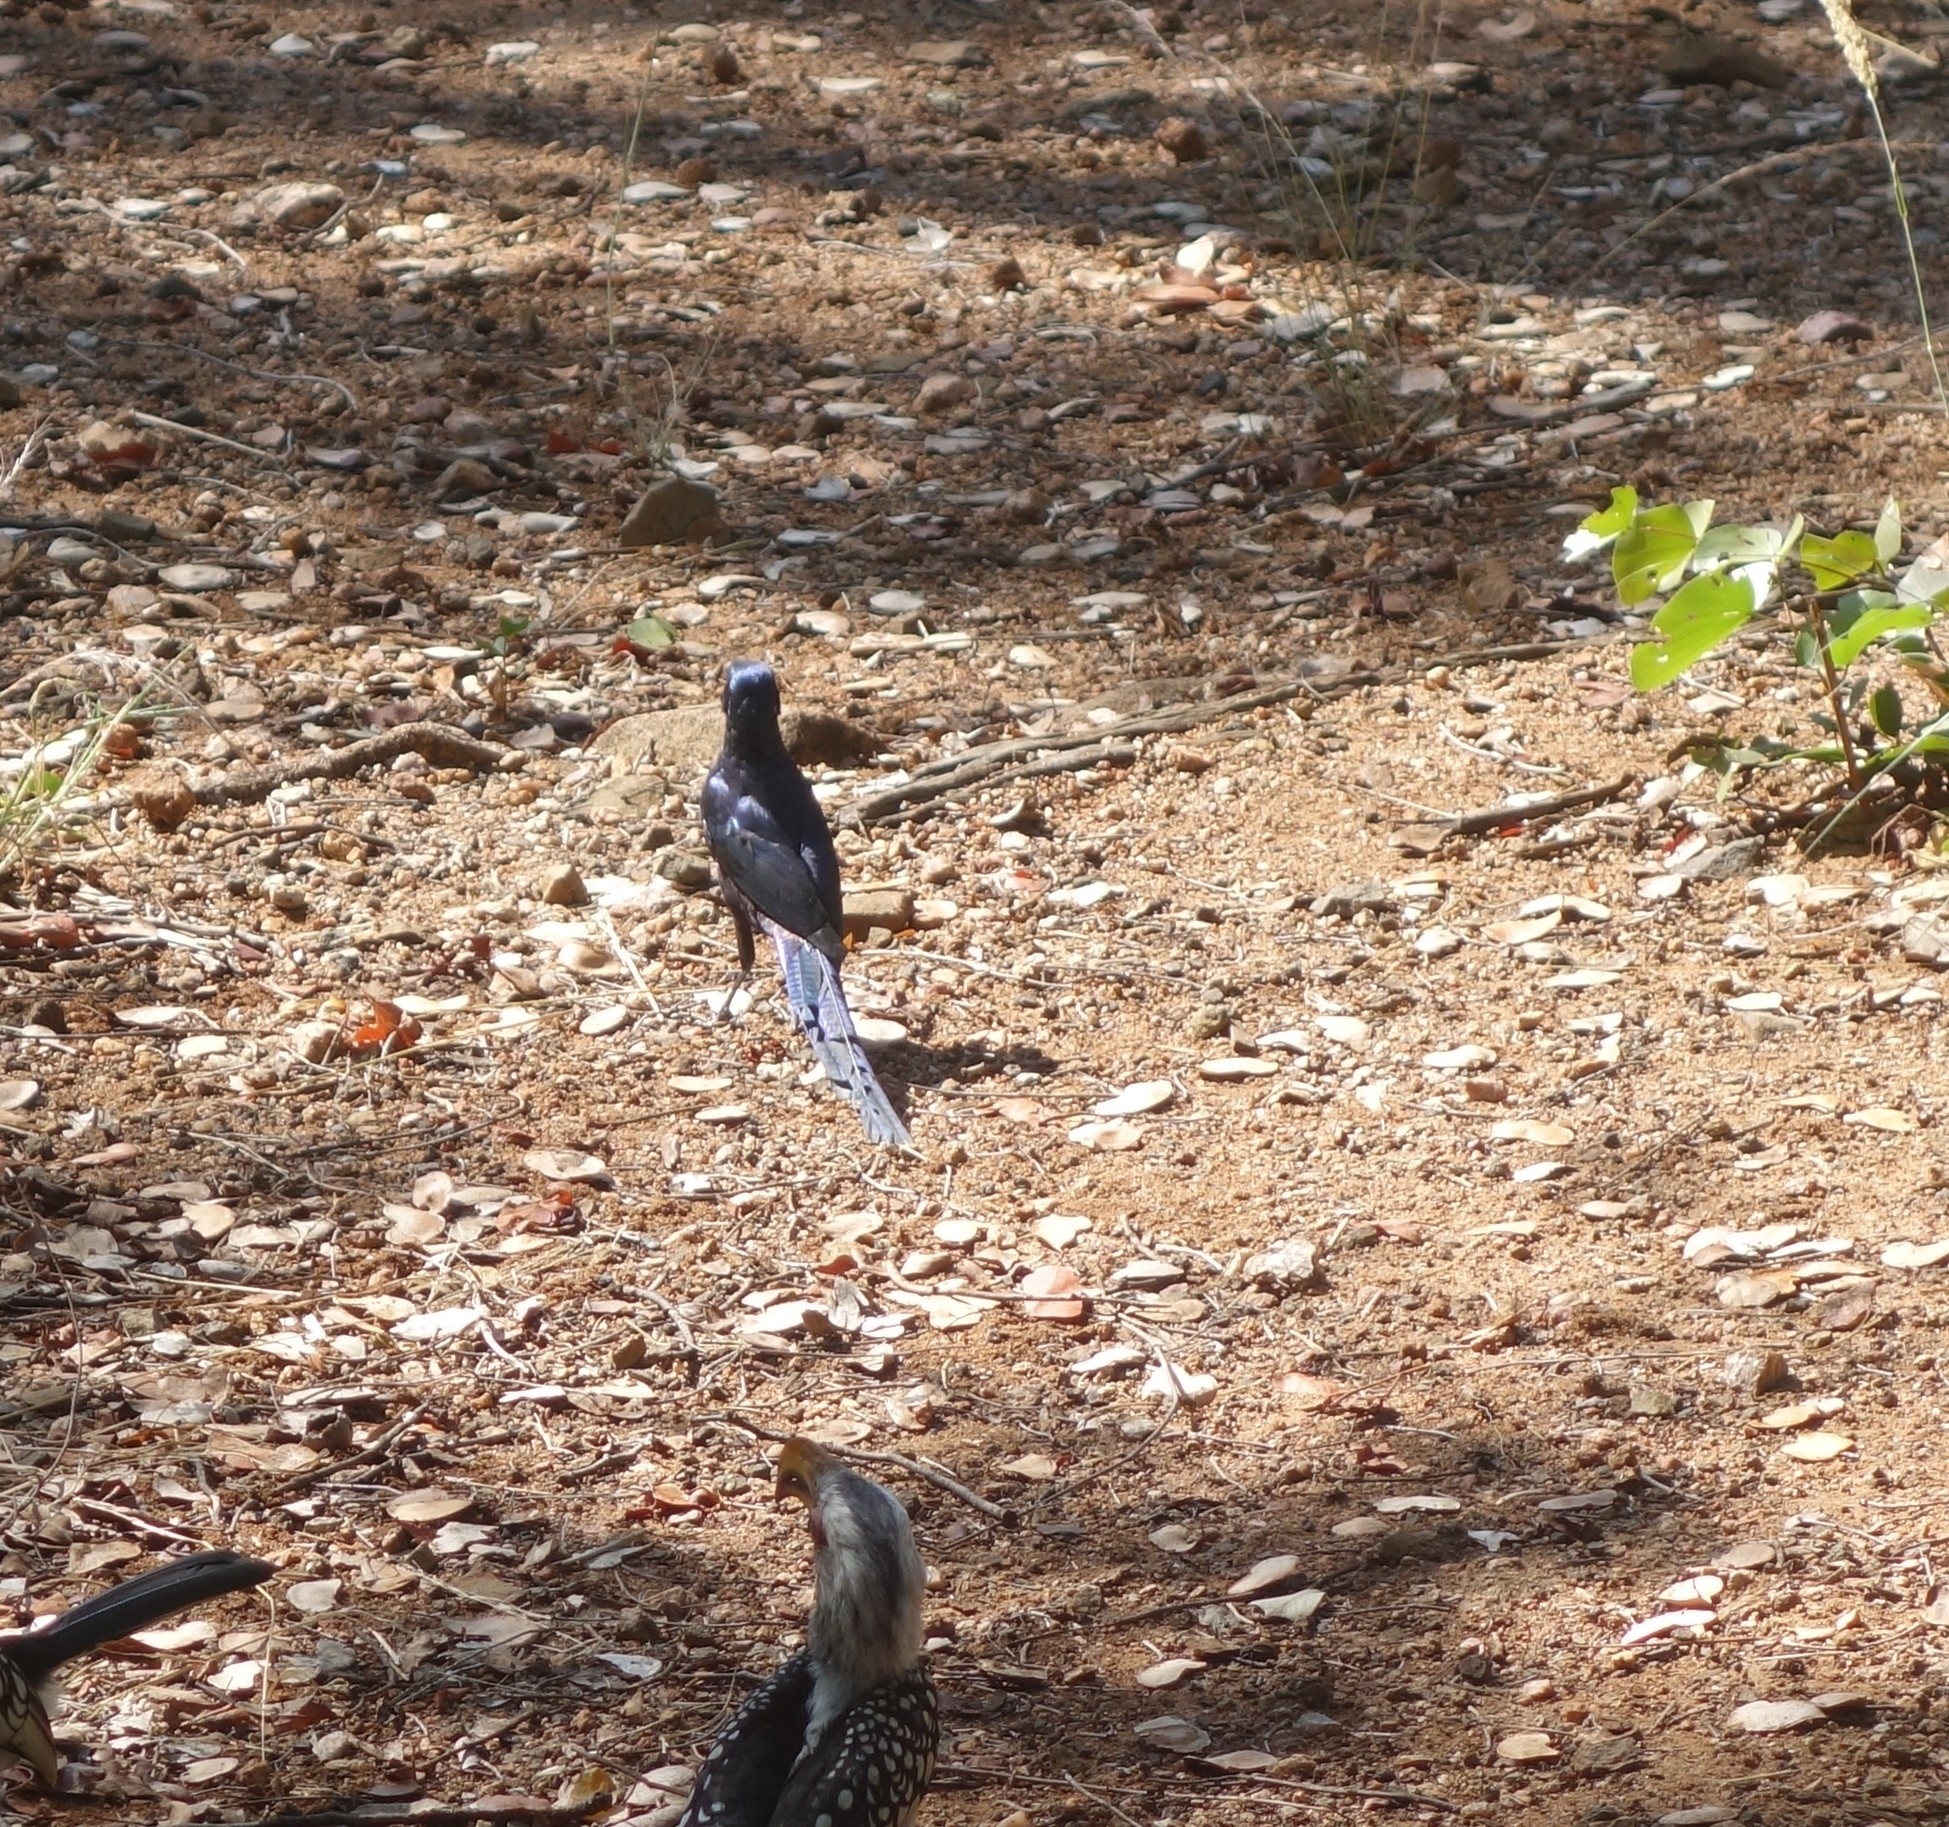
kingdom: Animalia
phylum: Chordata
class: Aves
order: Passeriformes
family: Sturnidae
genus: Lamprotornis
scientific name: Lamprotornis mevesii
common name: Meves's starling
